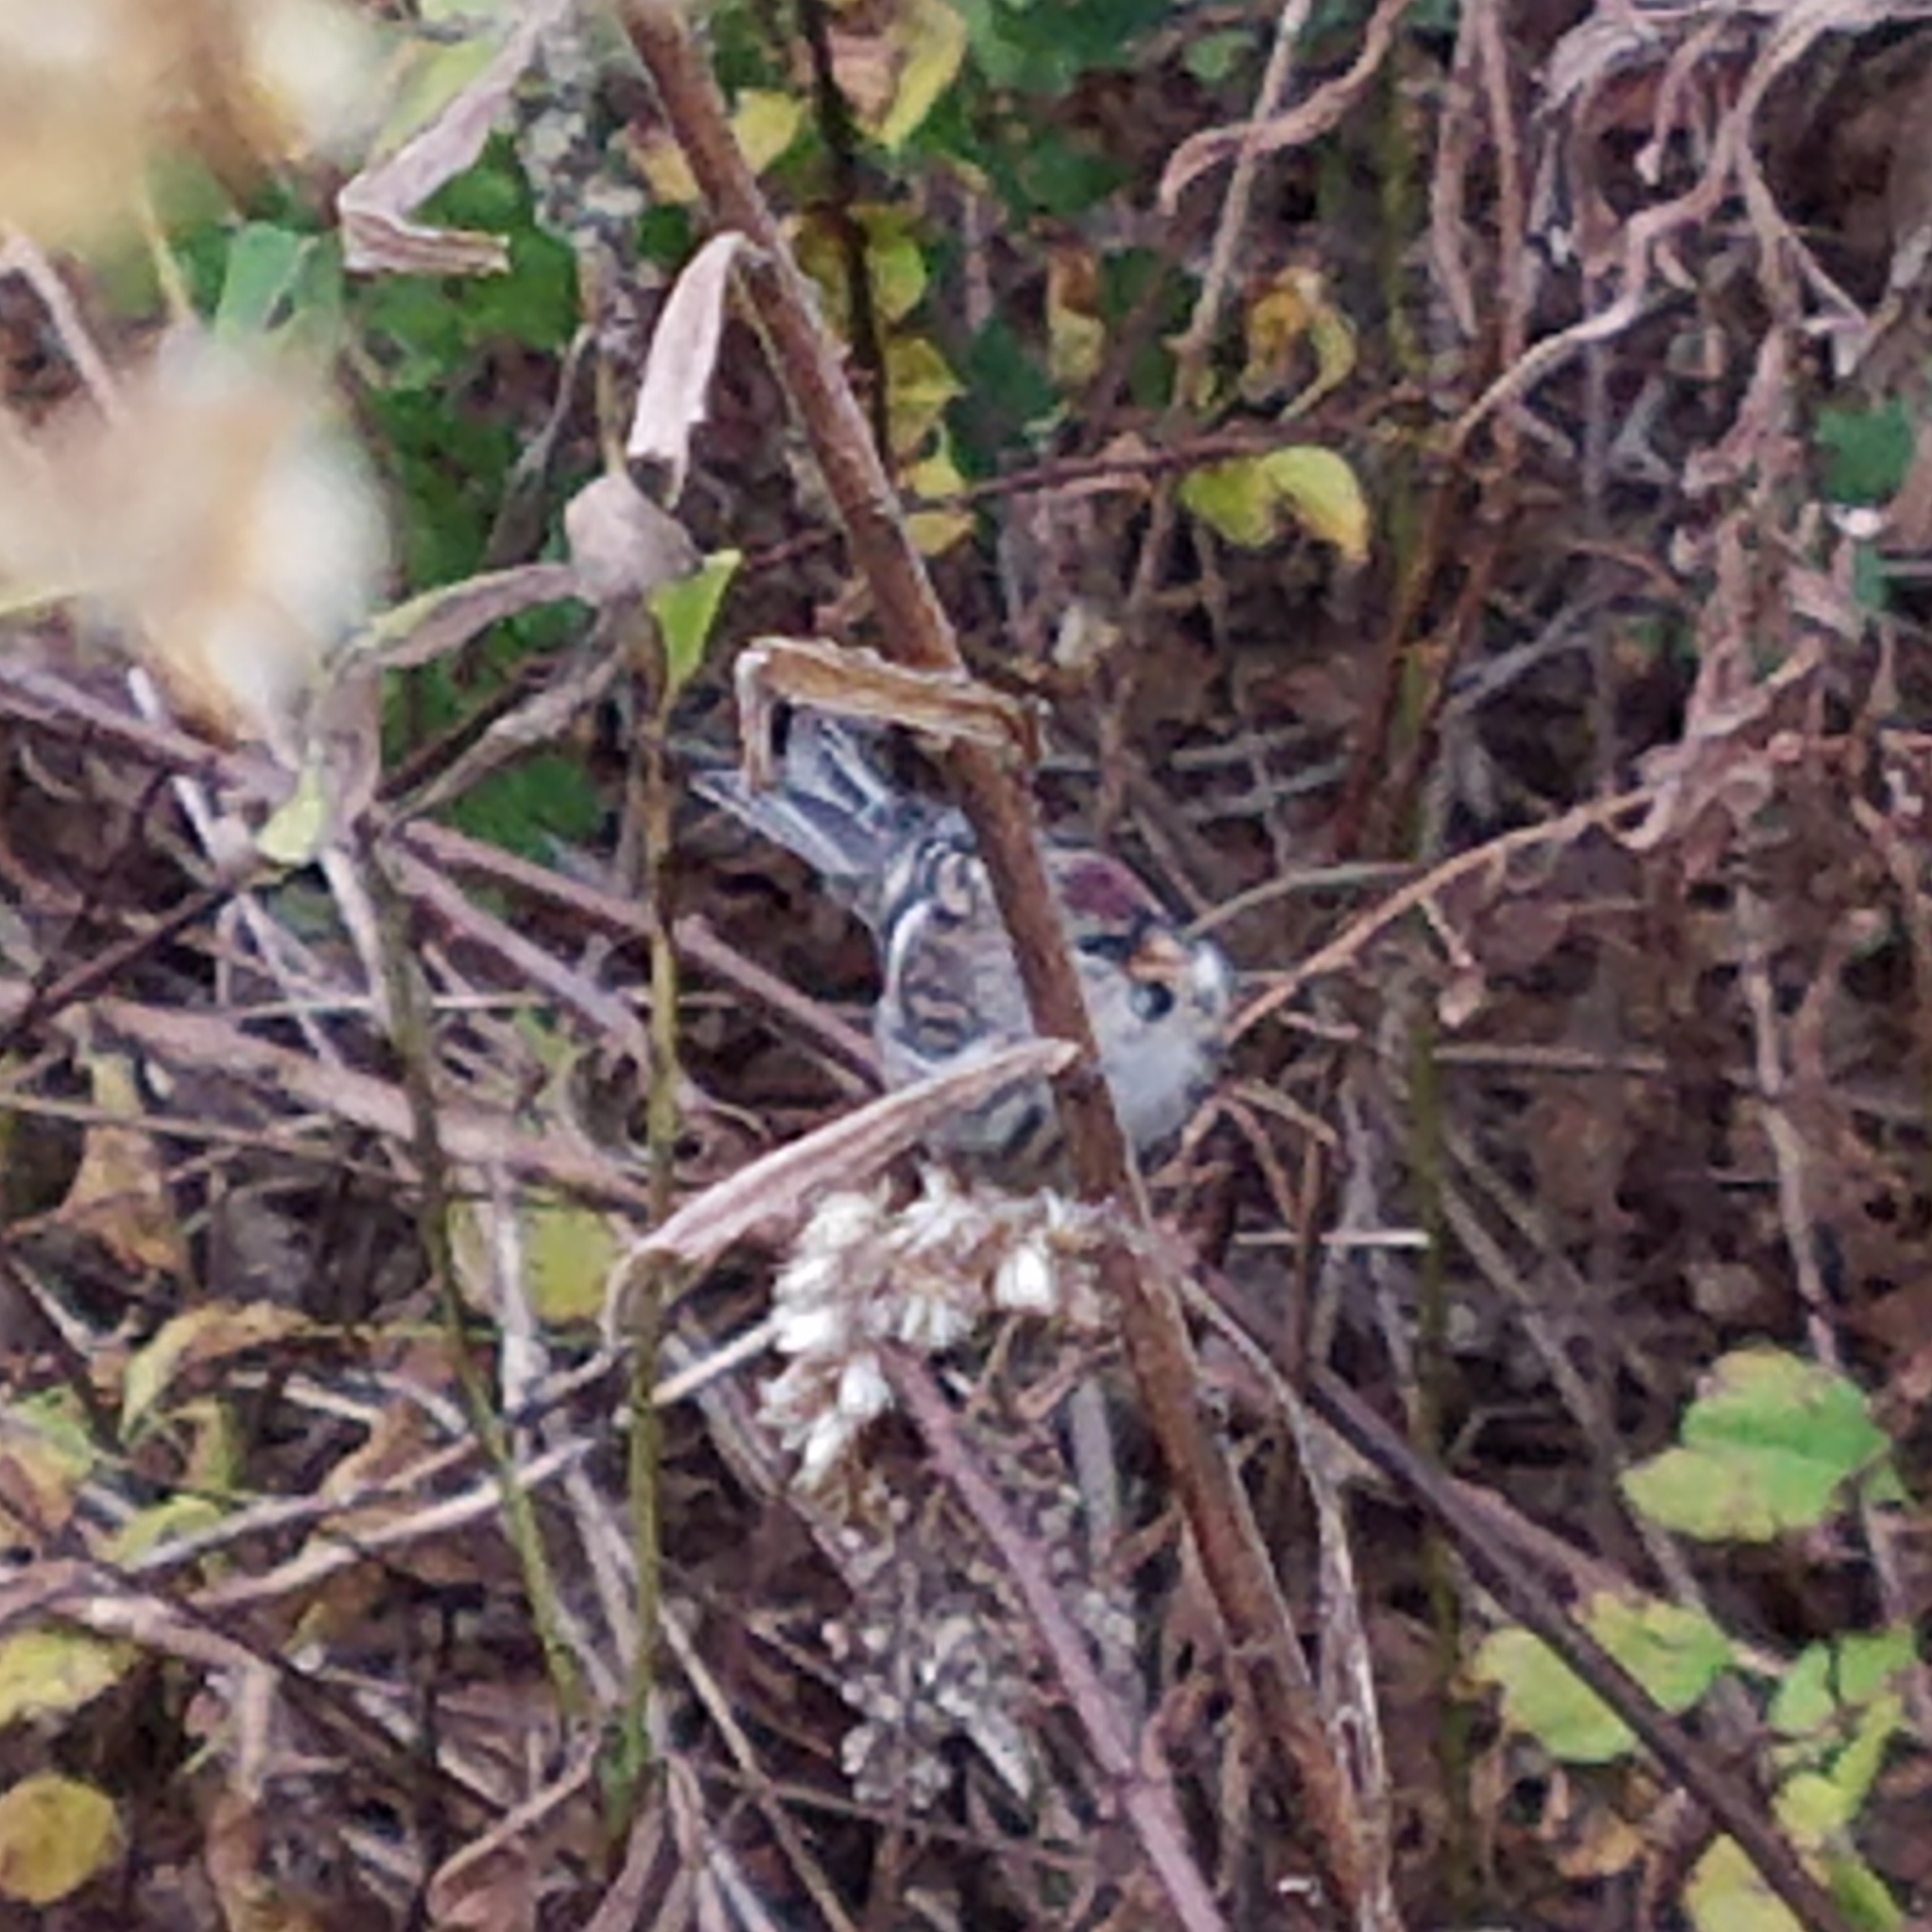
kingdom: Animalia
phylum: Chordata
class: Aves
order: Passeriformes
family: Fringillidae
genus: Acanthis
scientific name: Acanthis flammea
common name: Common redpoll
